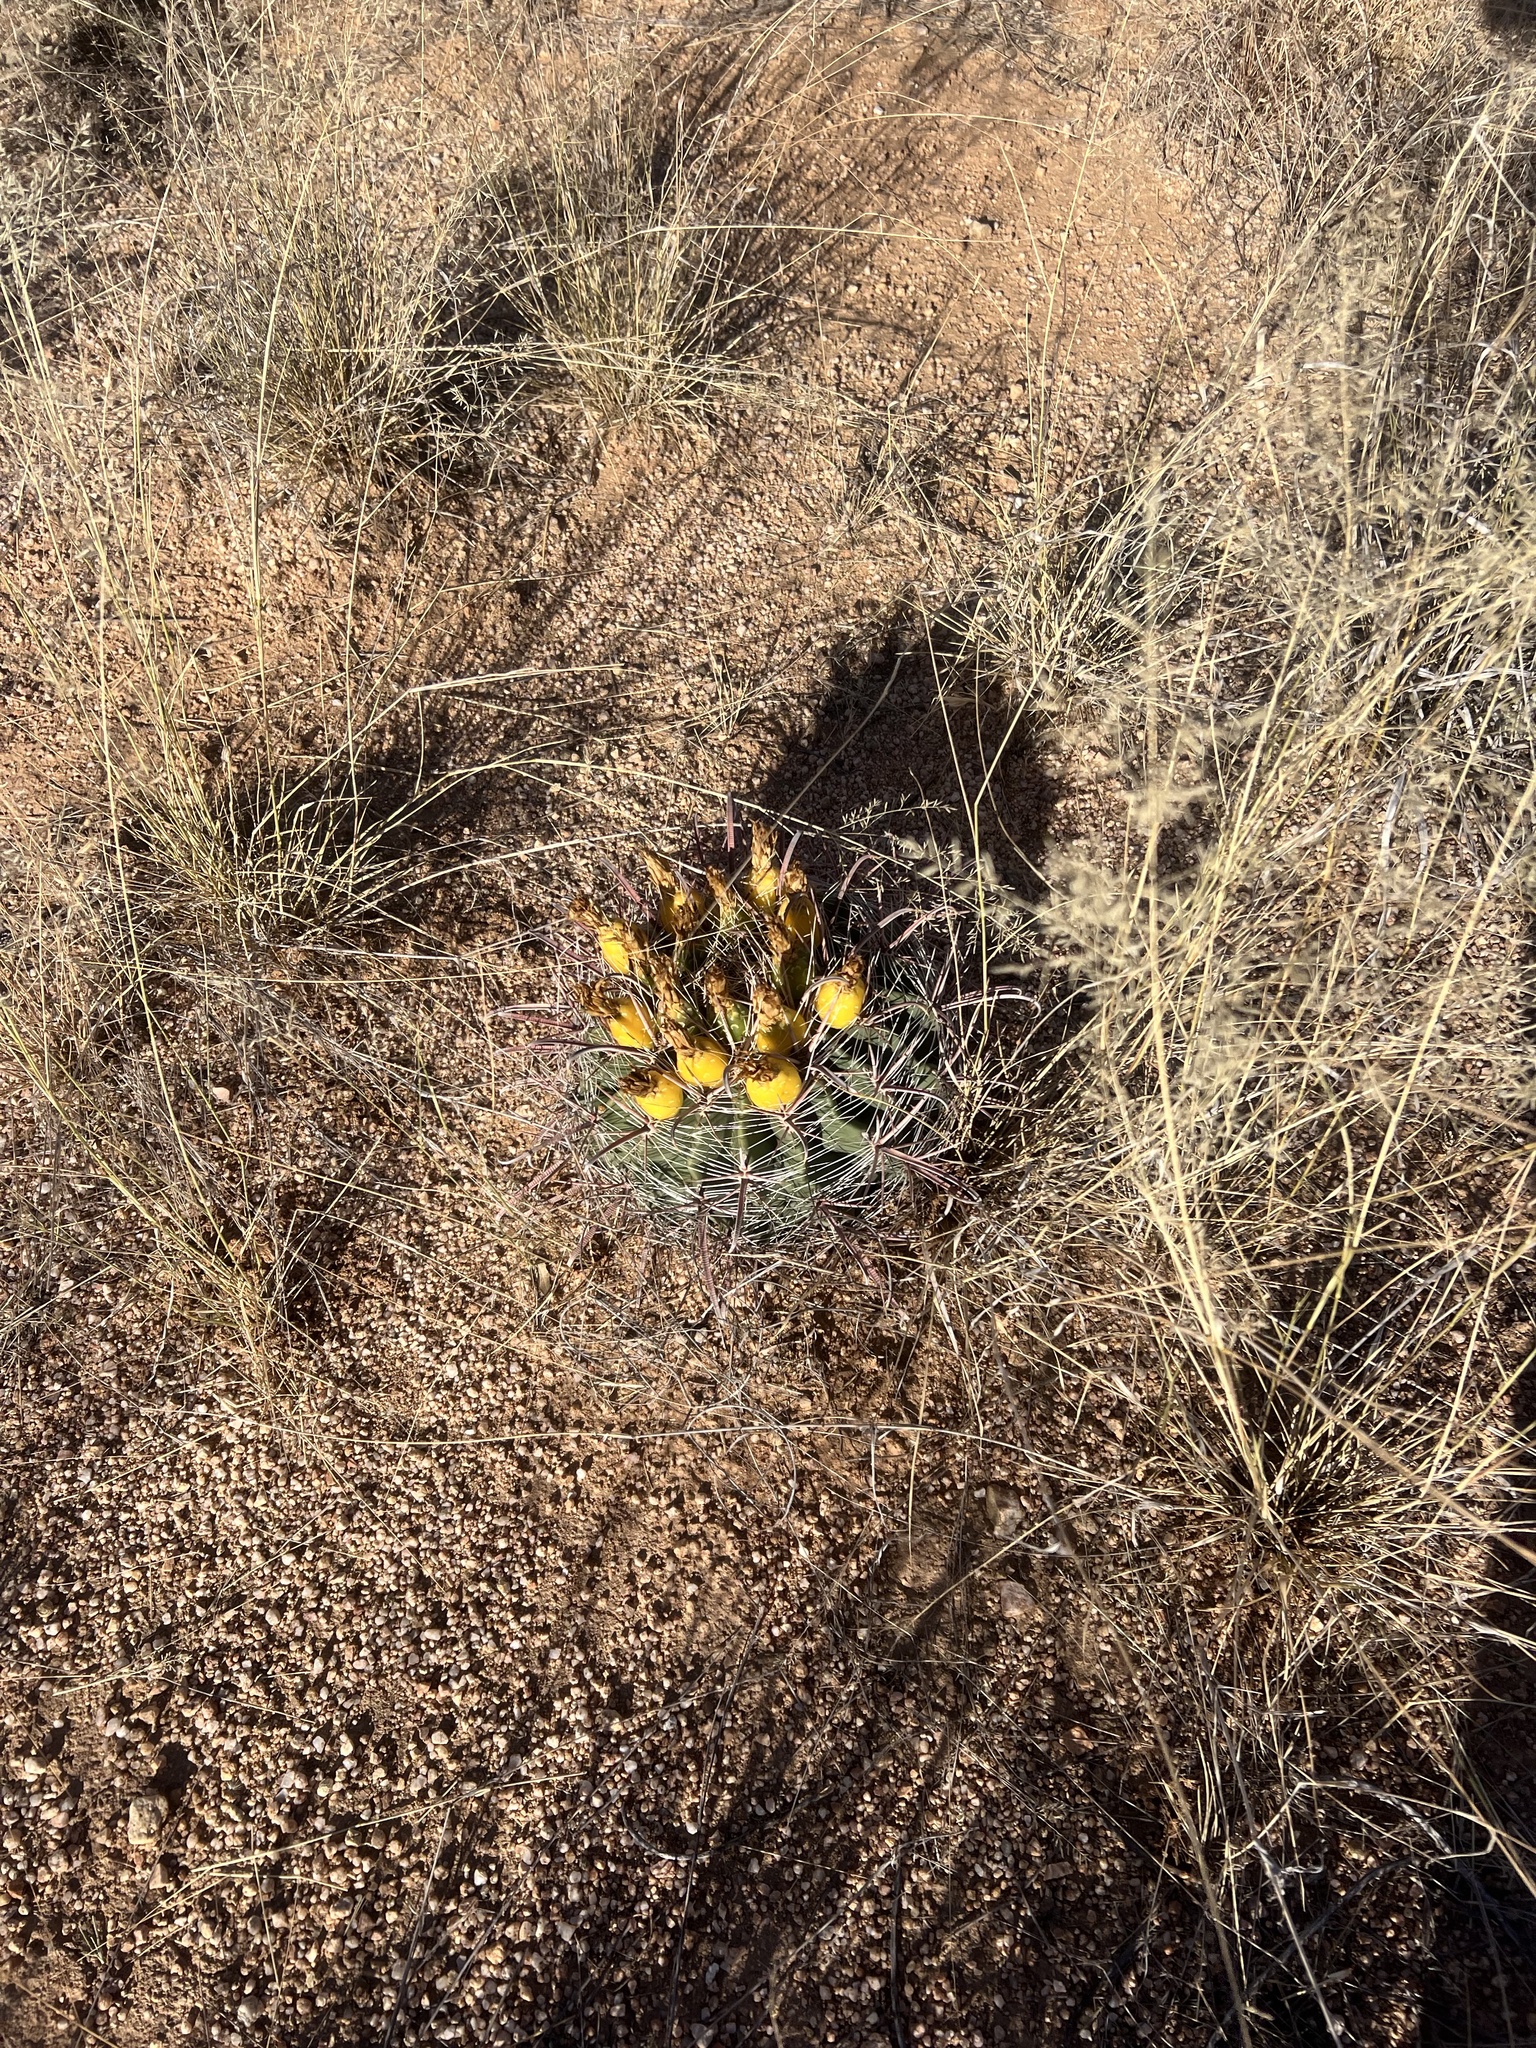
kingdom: Plantae
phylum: Tracheophyta
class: Magnoliopsida
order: Caryophyllales
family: Cactaceae
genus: Ferocactus
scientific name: Ferocactus wislizeni
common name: Candy barrel cactus
